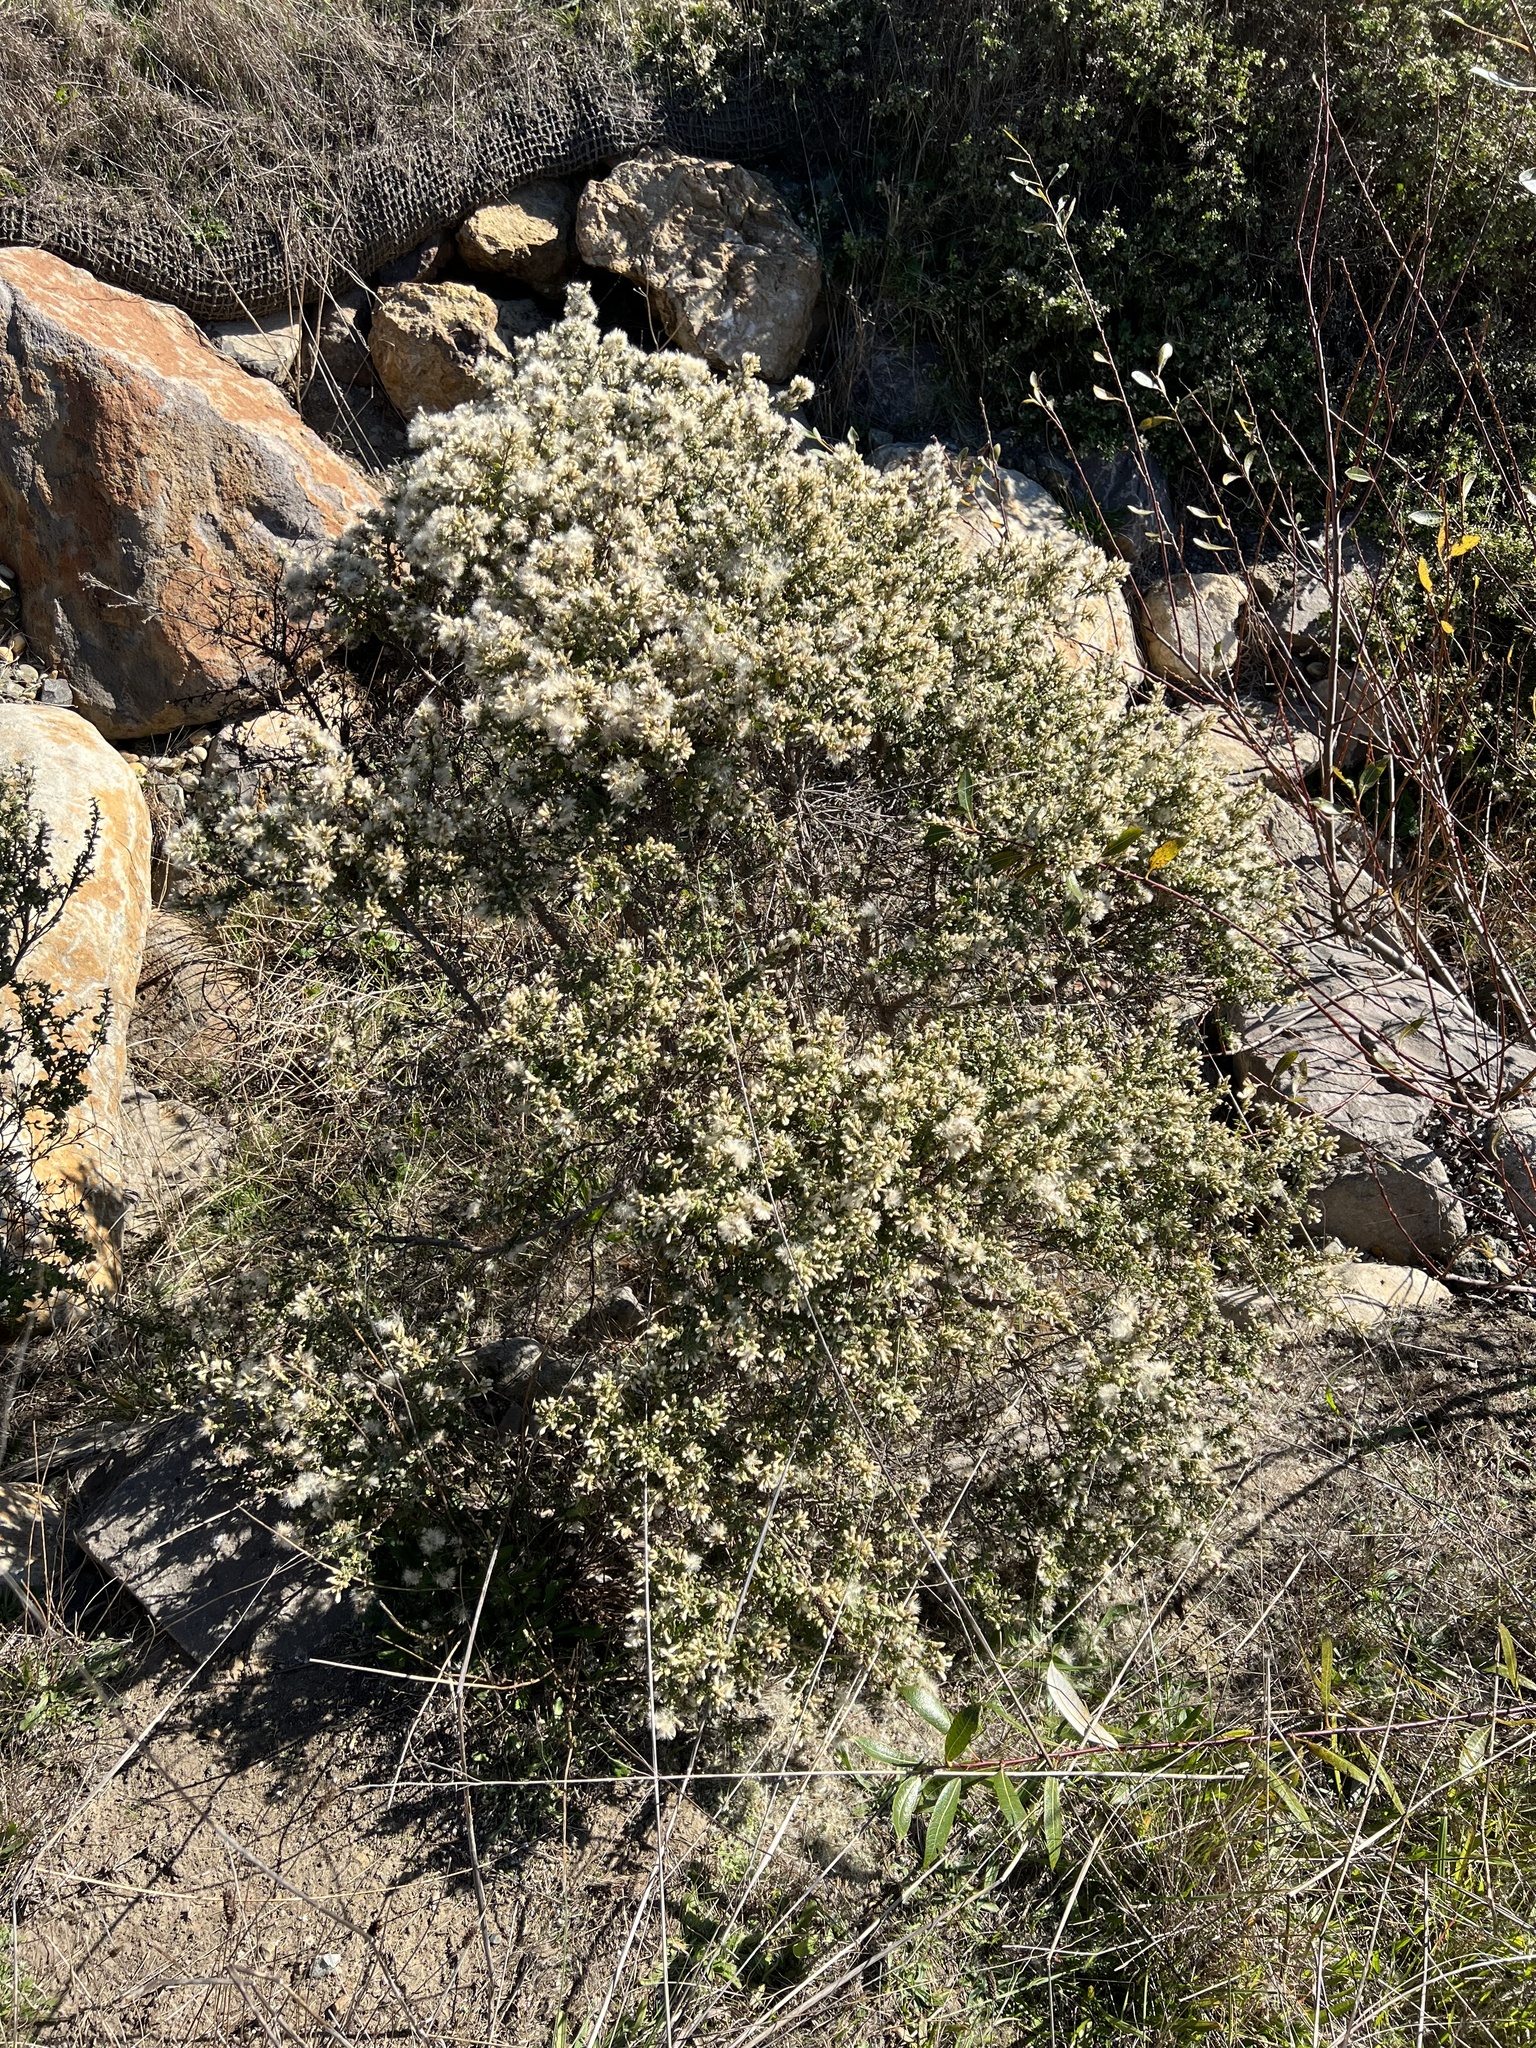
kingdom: Plantae
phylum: Tracheophyta
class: Magnoliopsida
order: Asterales
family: Asteraceae
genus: Baccharis
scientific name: Baccharis pilularis
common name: Coyotebrush
